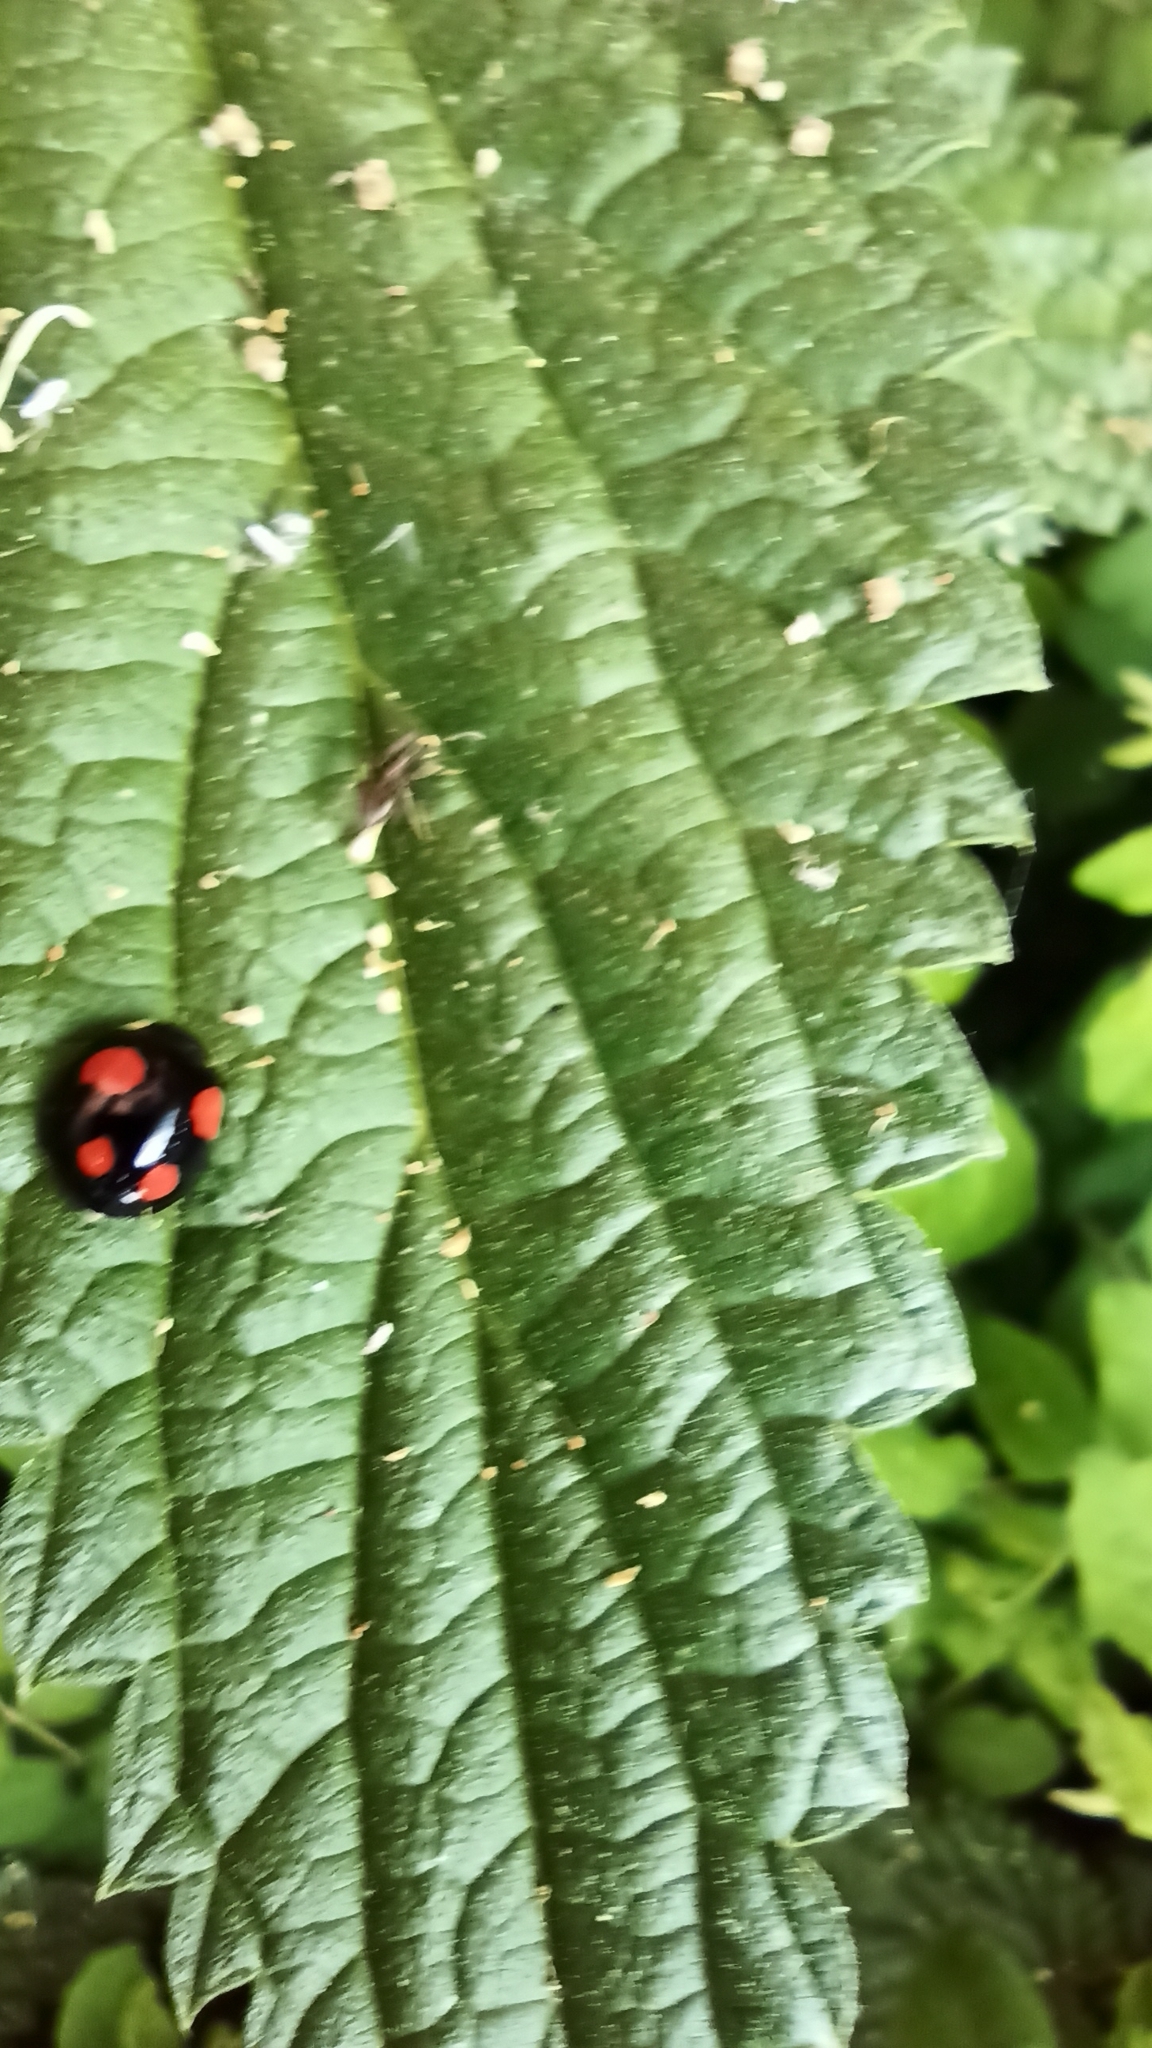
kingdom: Animalia
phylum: Arthropoda
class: Insecta
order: Coleoptera
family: Coccinellidae
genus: Harmonia
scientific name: Harmonia axyridis
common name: Harlequin ladybird
